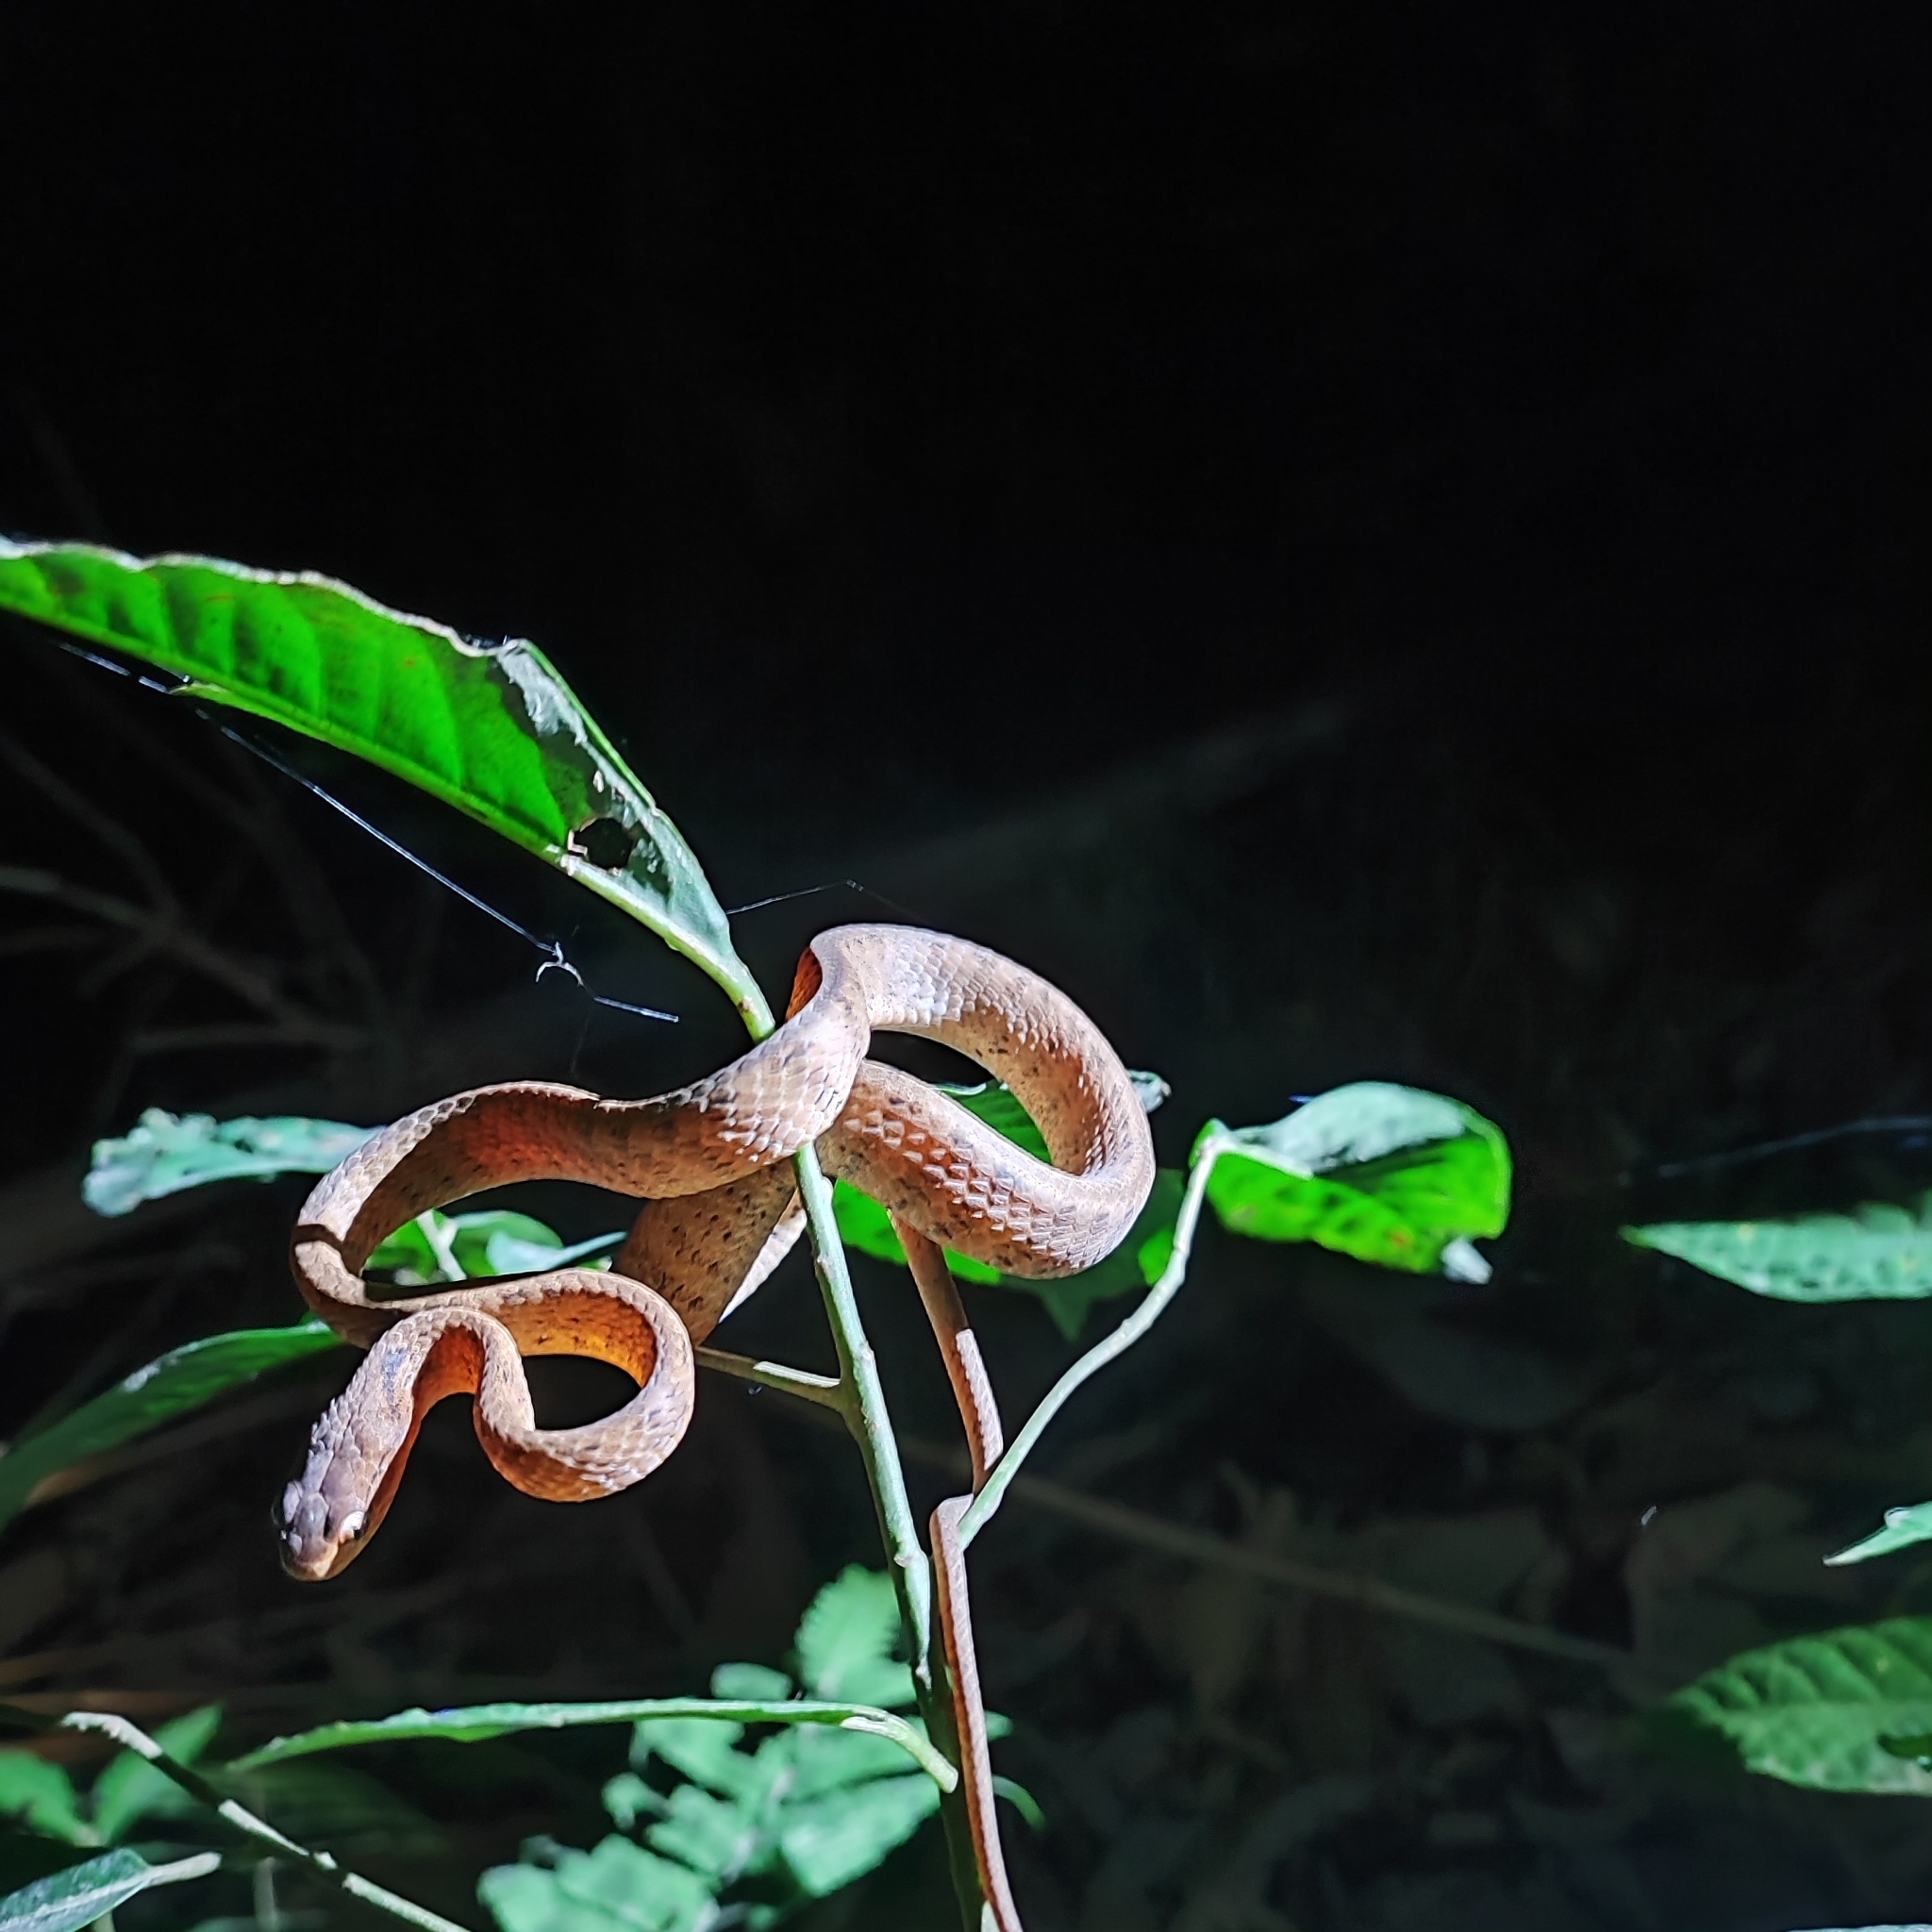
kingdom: Animalia
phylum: Chordata
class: Squamata
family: Pareidae
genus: Pareas
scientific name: Pareas carinatus
